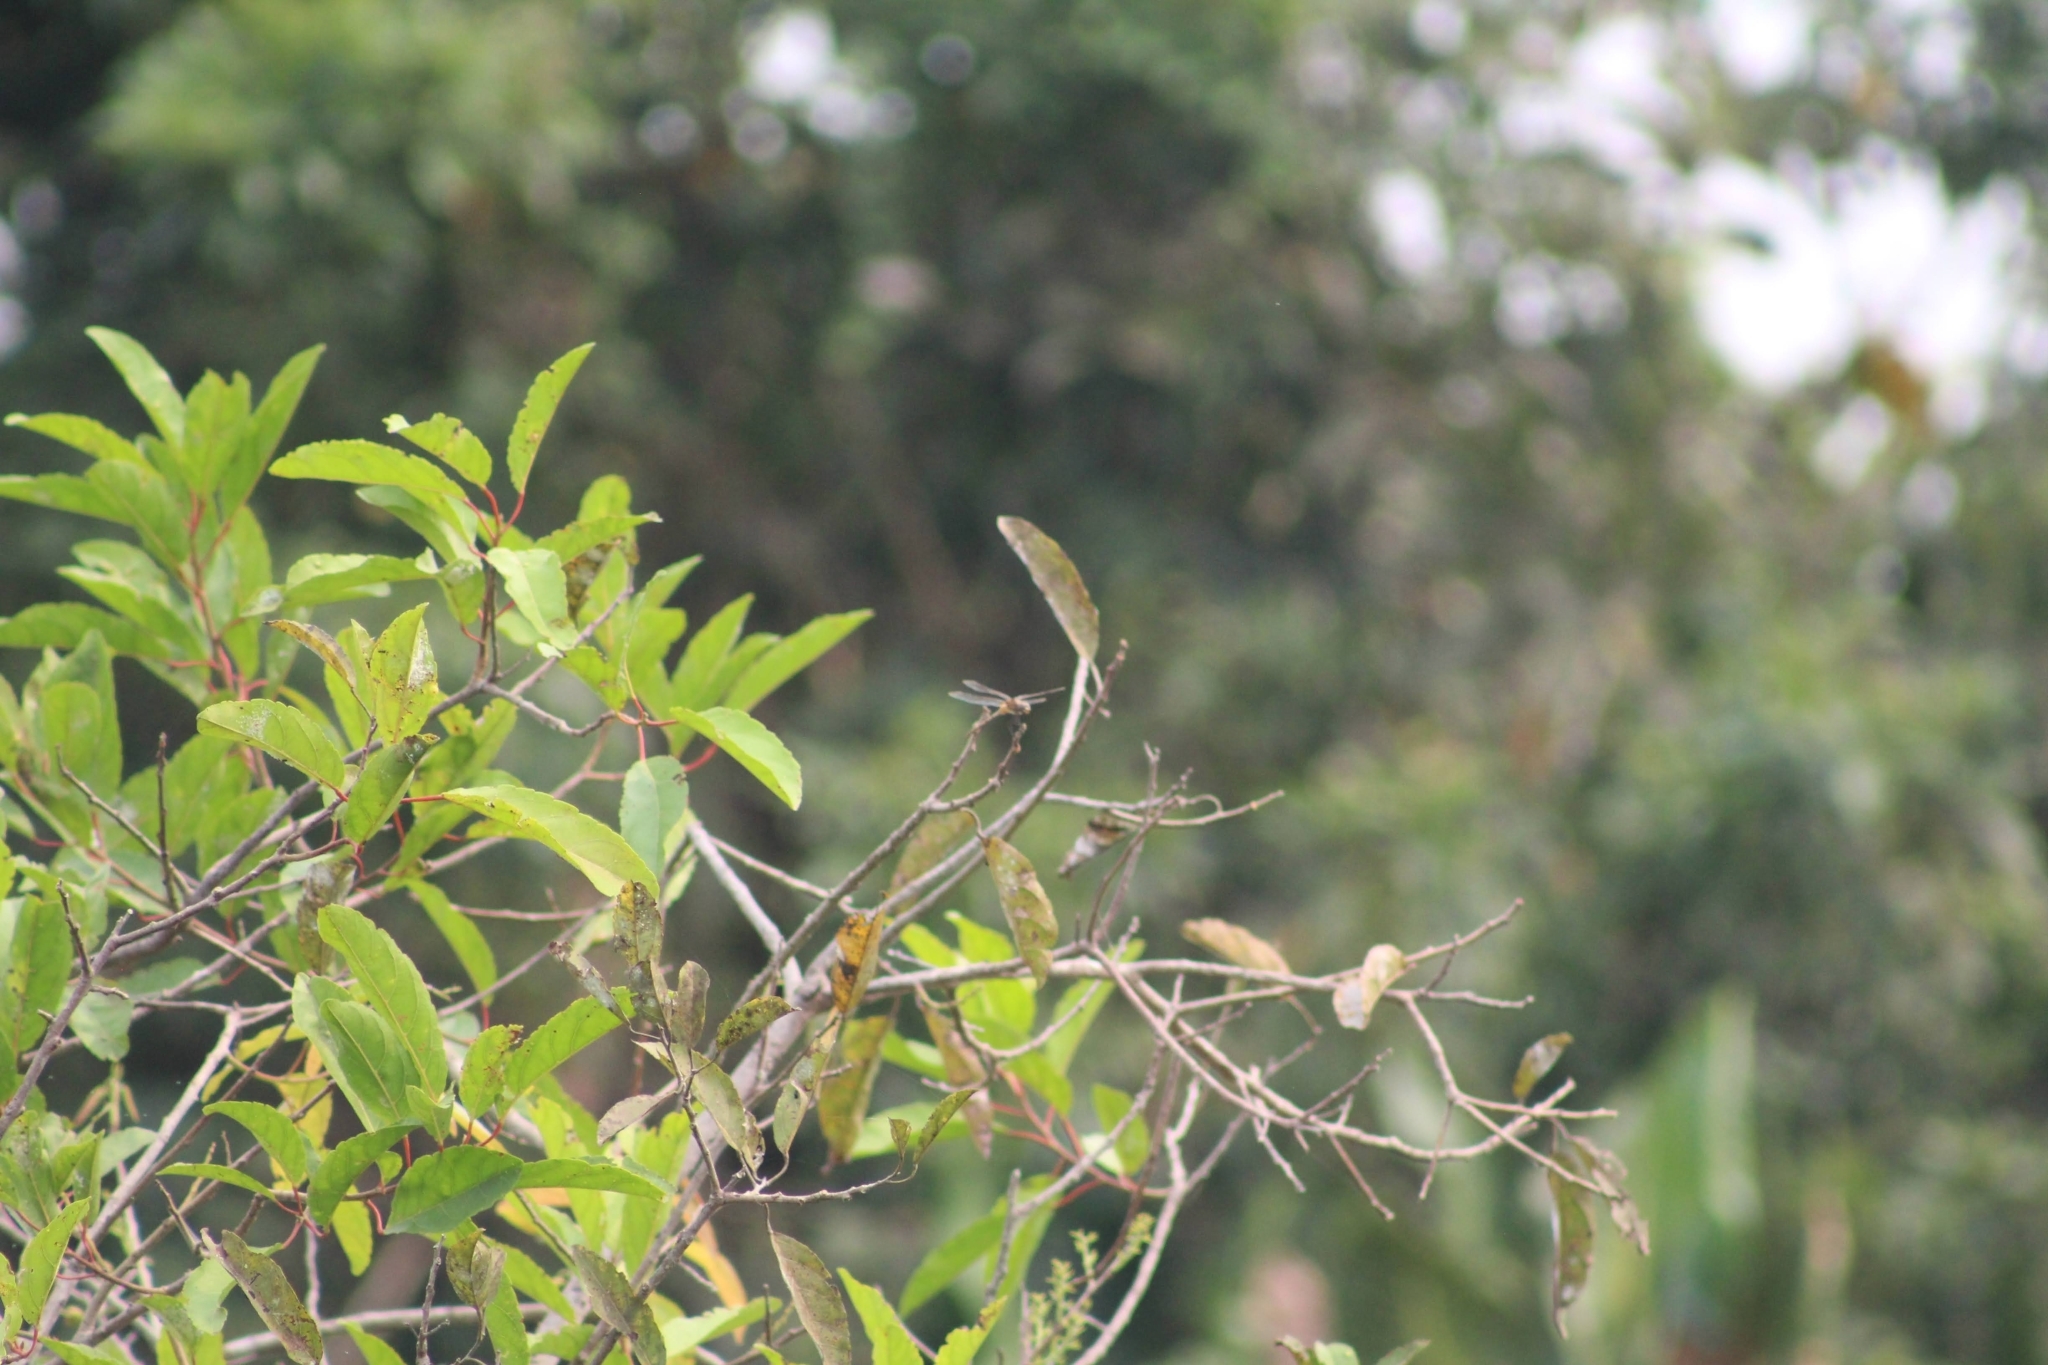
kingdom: Animalia
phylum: Arthropoda
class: Insecta
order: Odonata
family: Libellulidae
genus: Brachymesia
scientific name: Brachymesia herbida
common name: Tawny pennant
